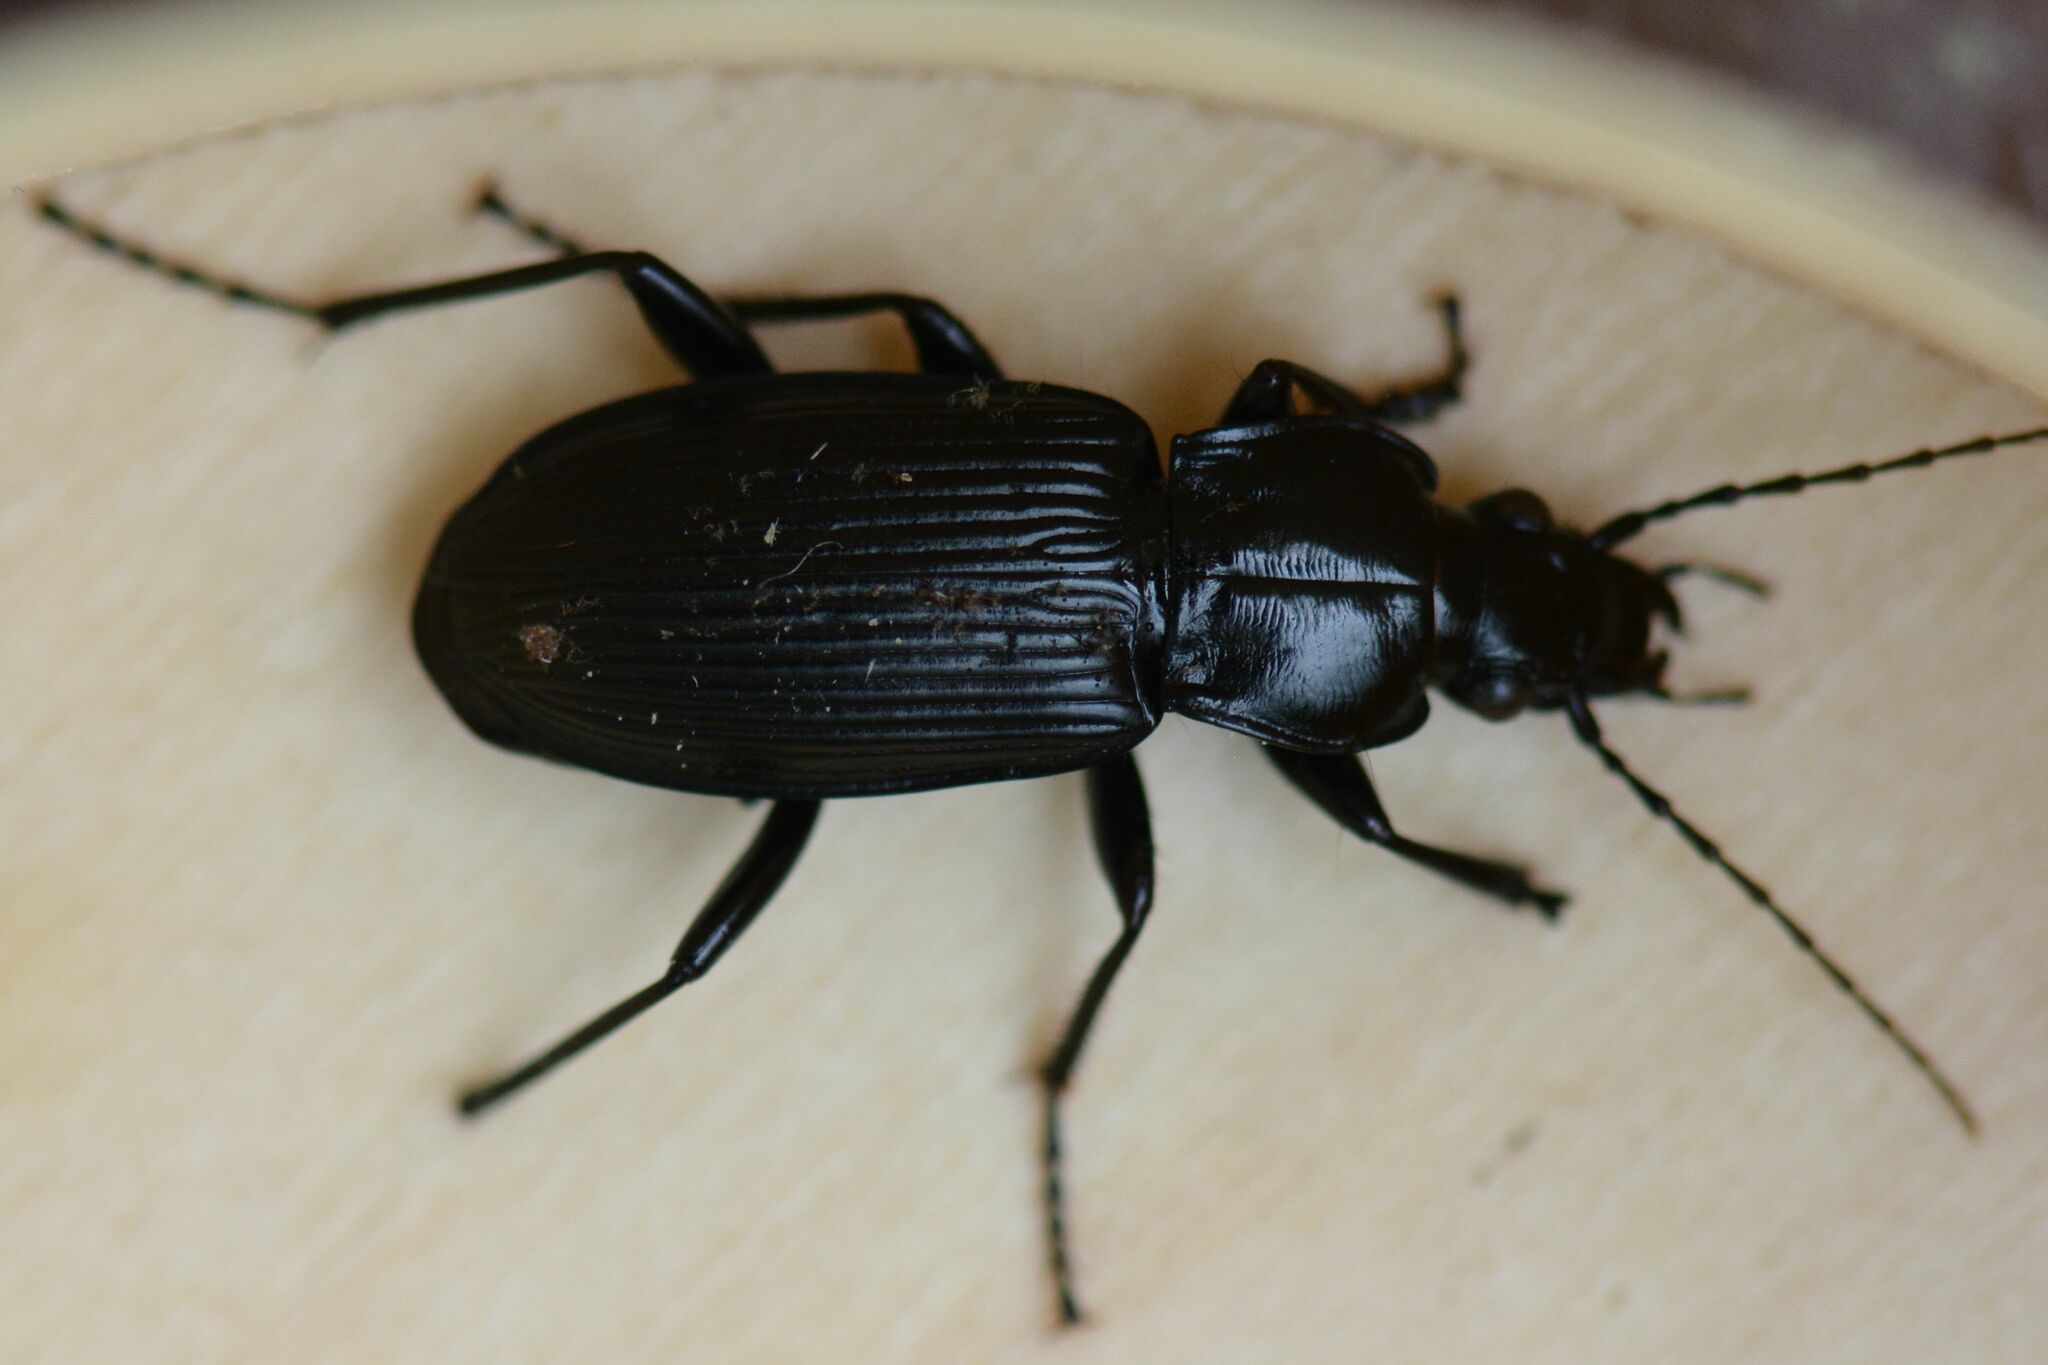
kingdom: Animalia
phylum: Arthropoda
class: Insecta
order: Coleoptera
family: Carabidae
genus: Pterostichus
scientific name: Pterostichus niger
